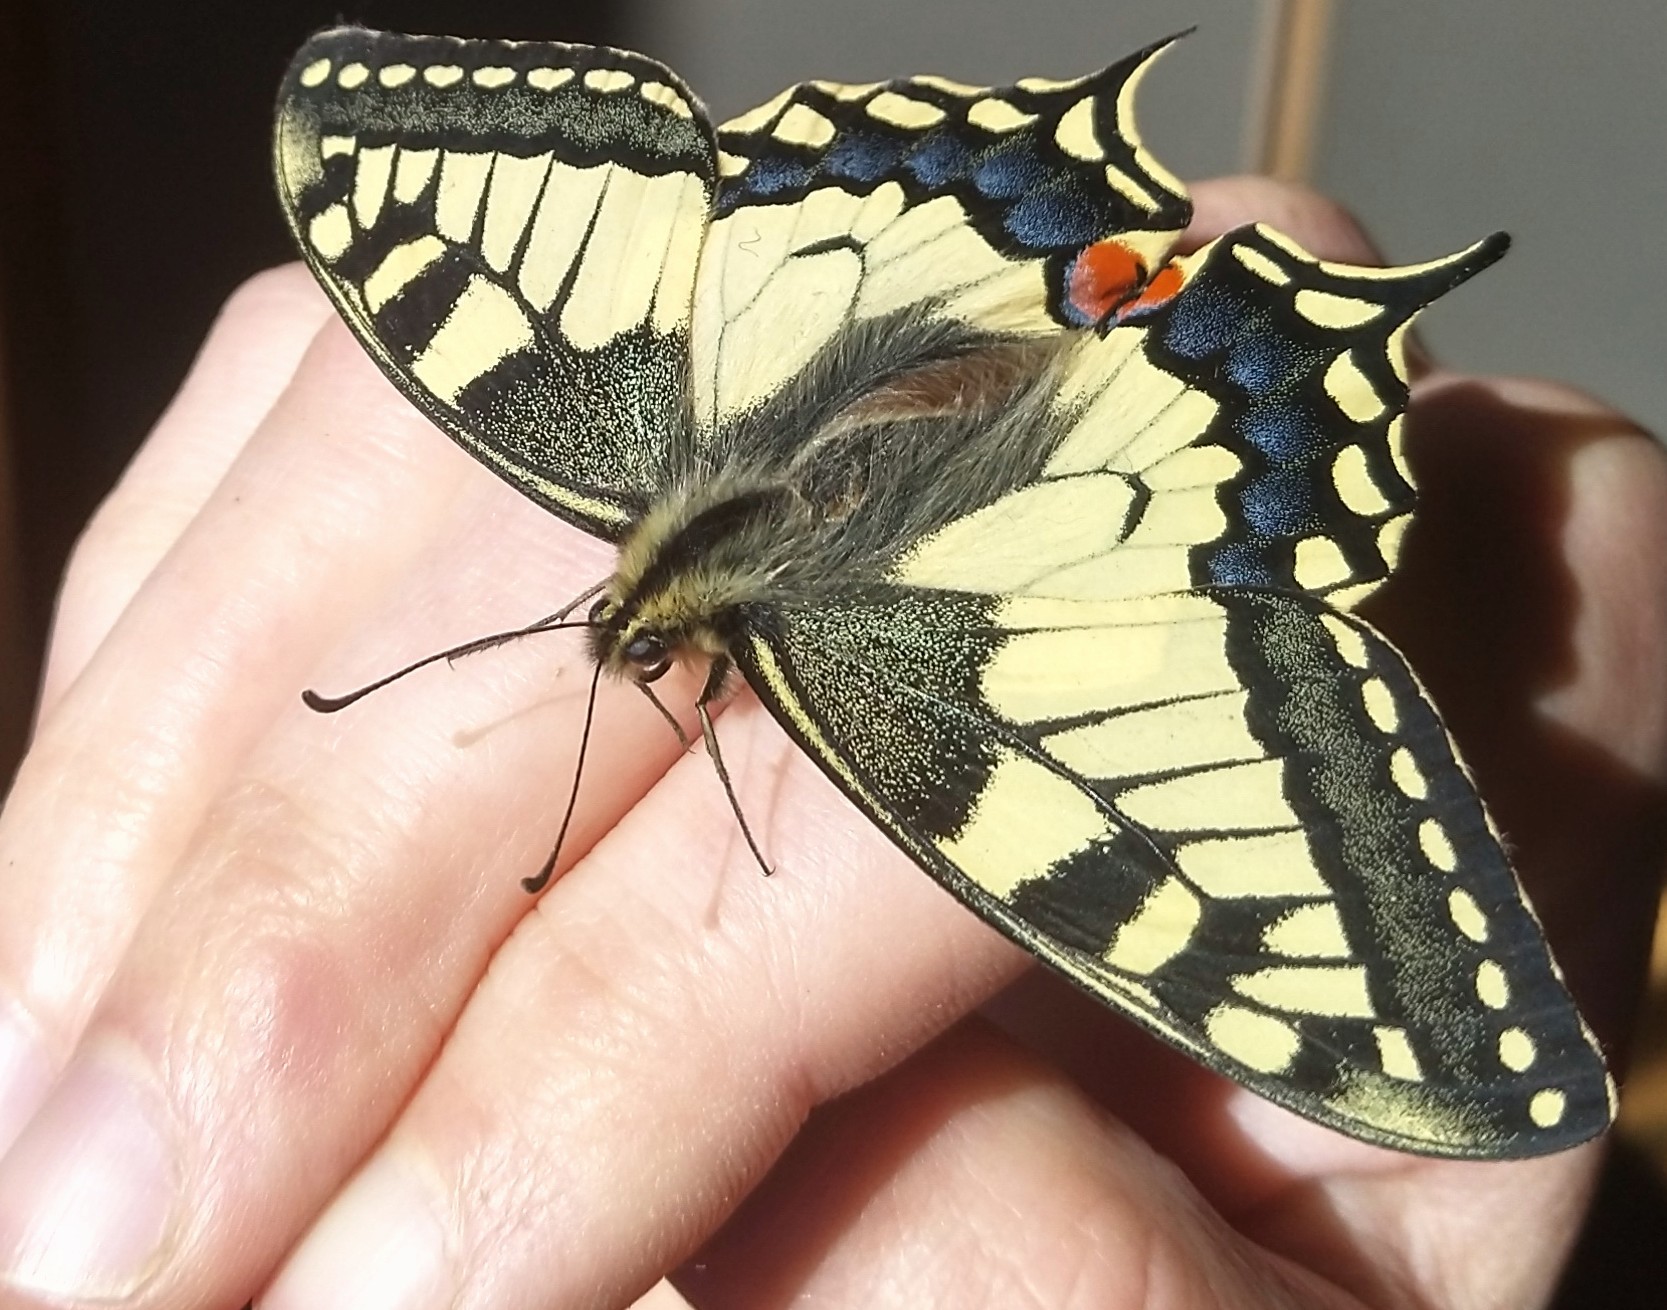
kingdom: Animalia
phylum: Arthropoda
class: Insecta
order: Lepidoptera
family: Papilionidae
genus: Papilio
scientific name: Papilio machaon
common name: Swallowtail
